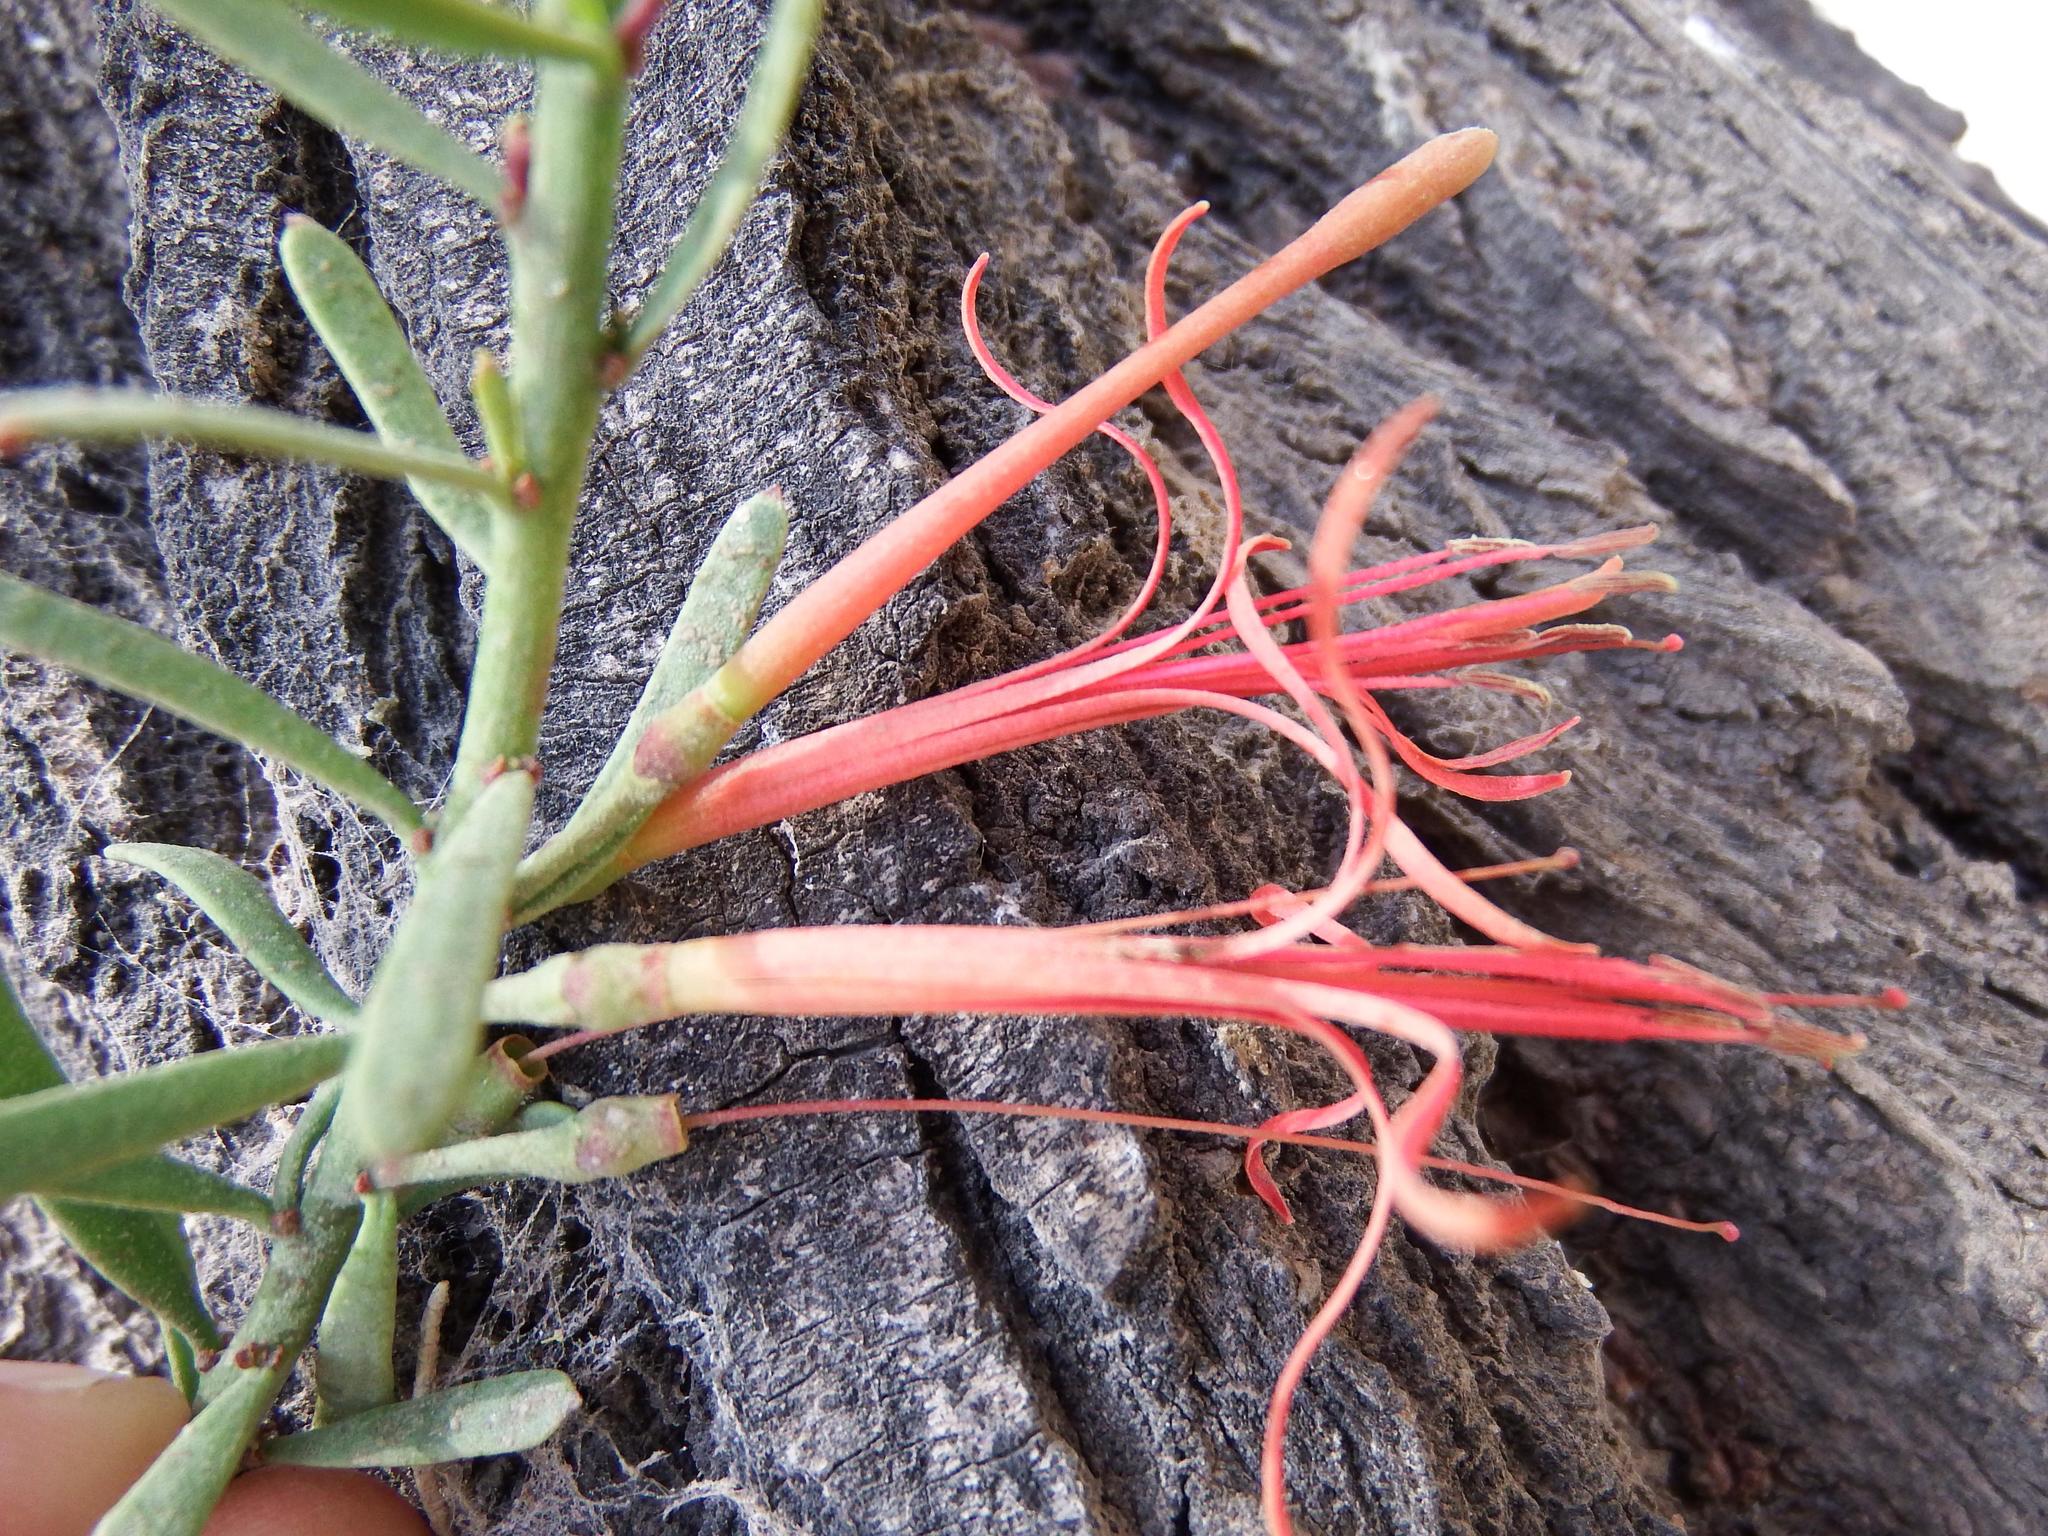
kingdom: Plantae
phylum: Tracheophyta
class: Magnoliopsida
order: Santalales
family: Loranthaceae
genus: Ligaria
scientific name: Ligaria cuneifolia
